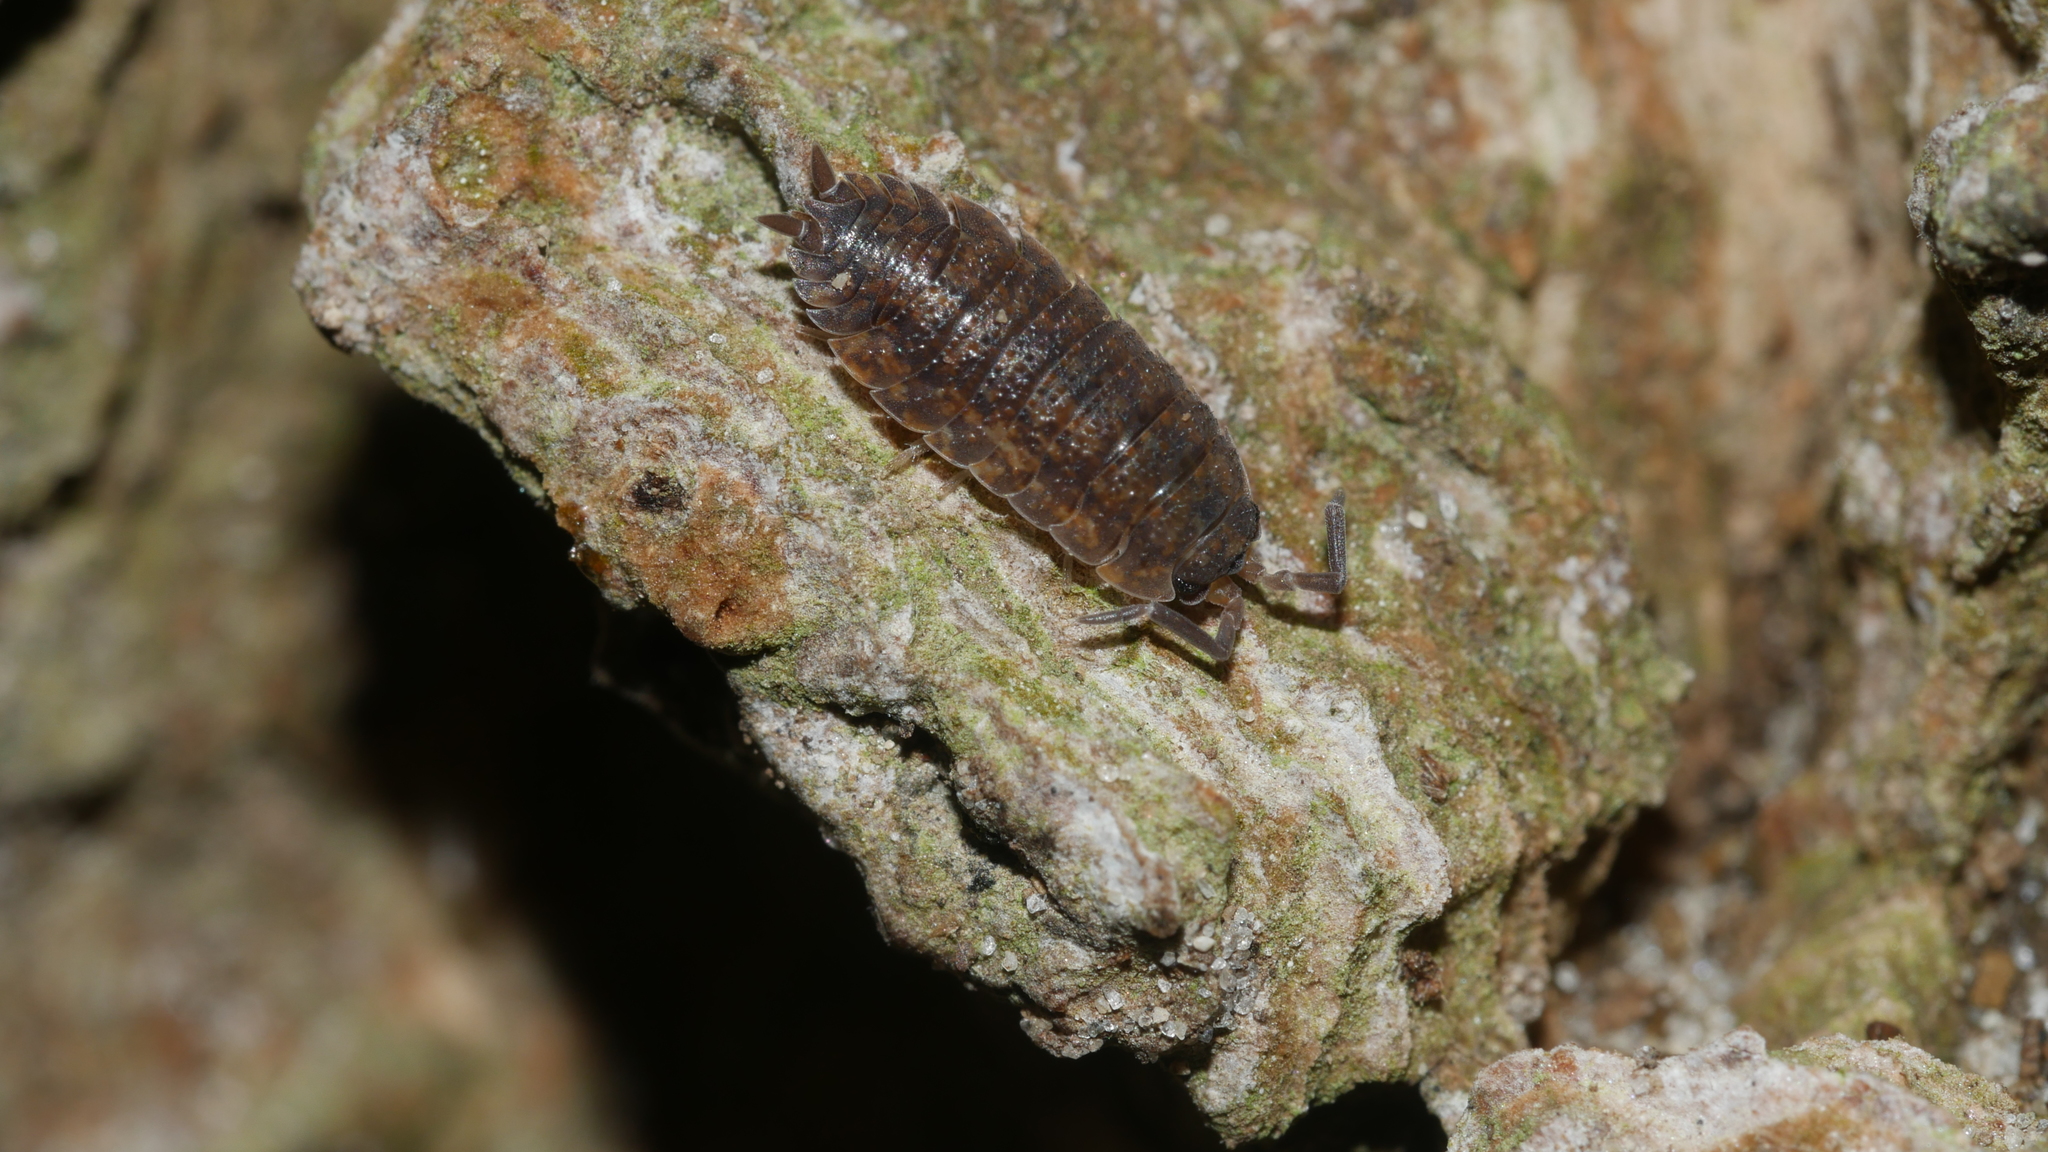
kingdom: Animalia
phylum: Arthropoda
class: Malacostraca
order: Isopoda
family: Porcellionidae
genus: Porcellio
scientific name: Porcellio scaber
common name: Common rough woodlouse
